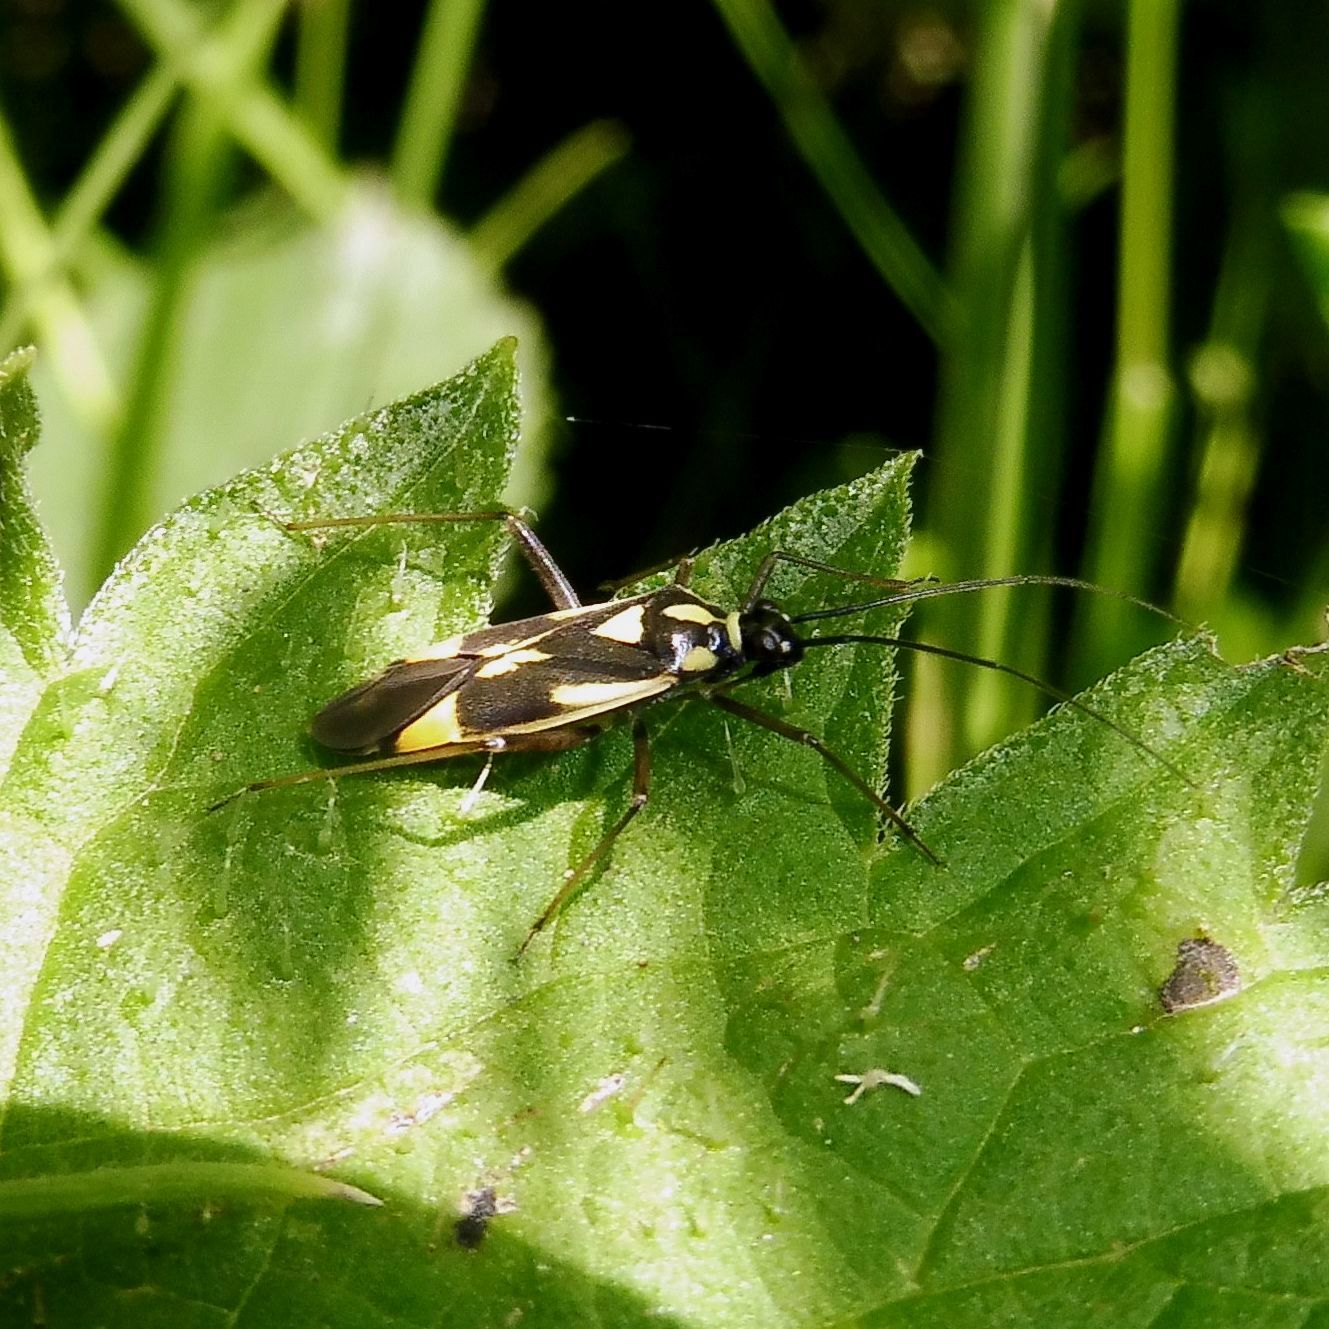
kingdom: Animalia
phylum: Arthropoda
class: Insecta
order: Hemiptera
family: Miridae
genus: Grypocoris
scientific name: Grypocoris stysi
